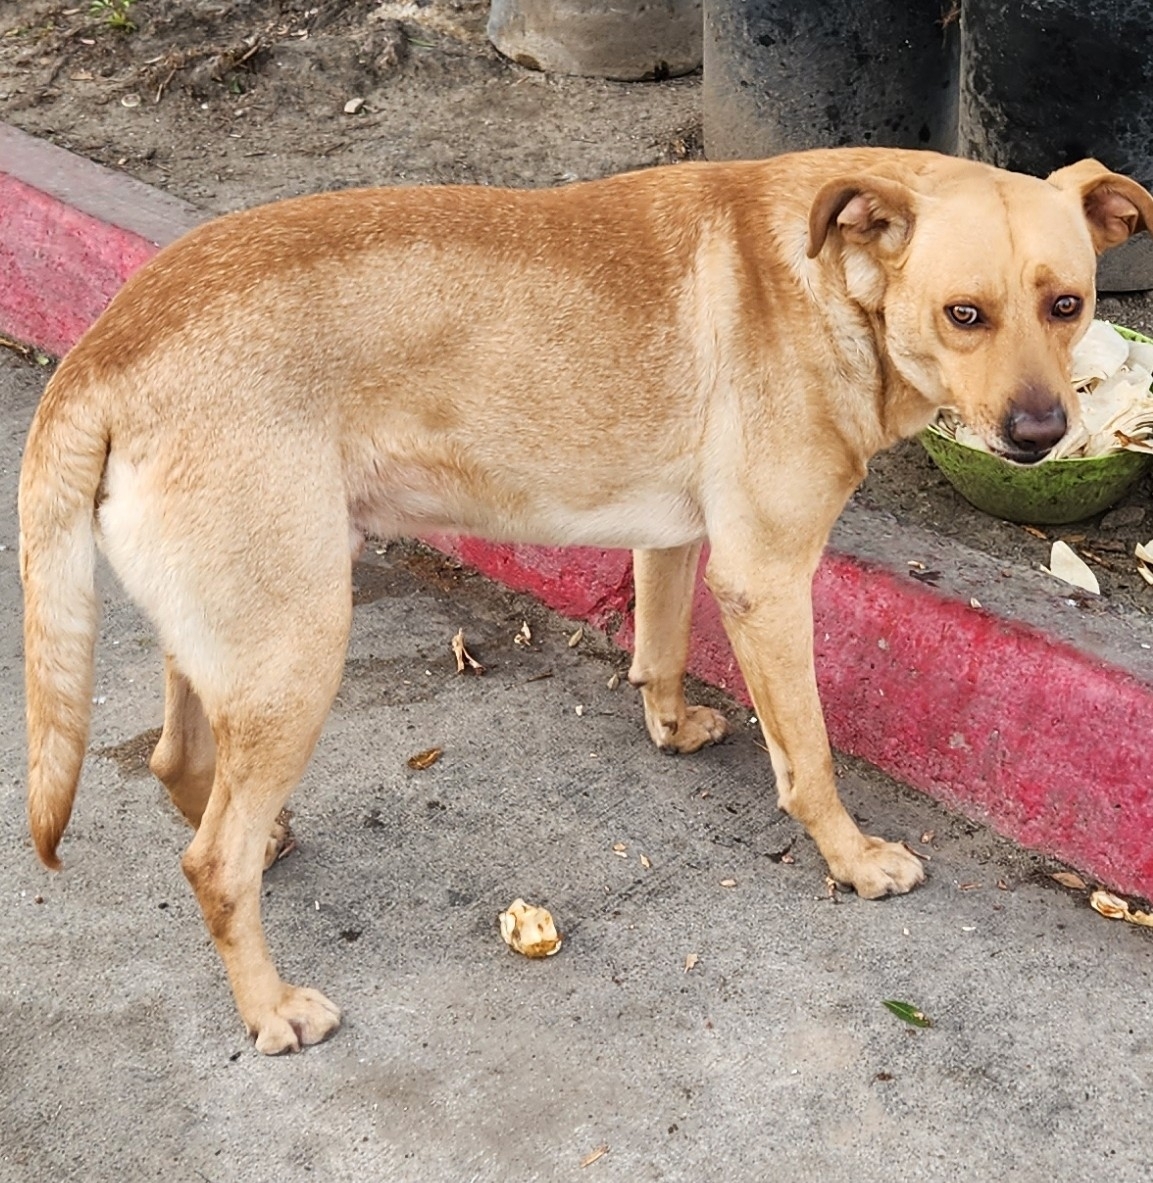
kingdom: Animalia
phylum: Chordata
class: Mammalia
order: Carnivora
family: Canidae
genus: Canis
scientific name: Canis lupus
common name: Gray wolf
